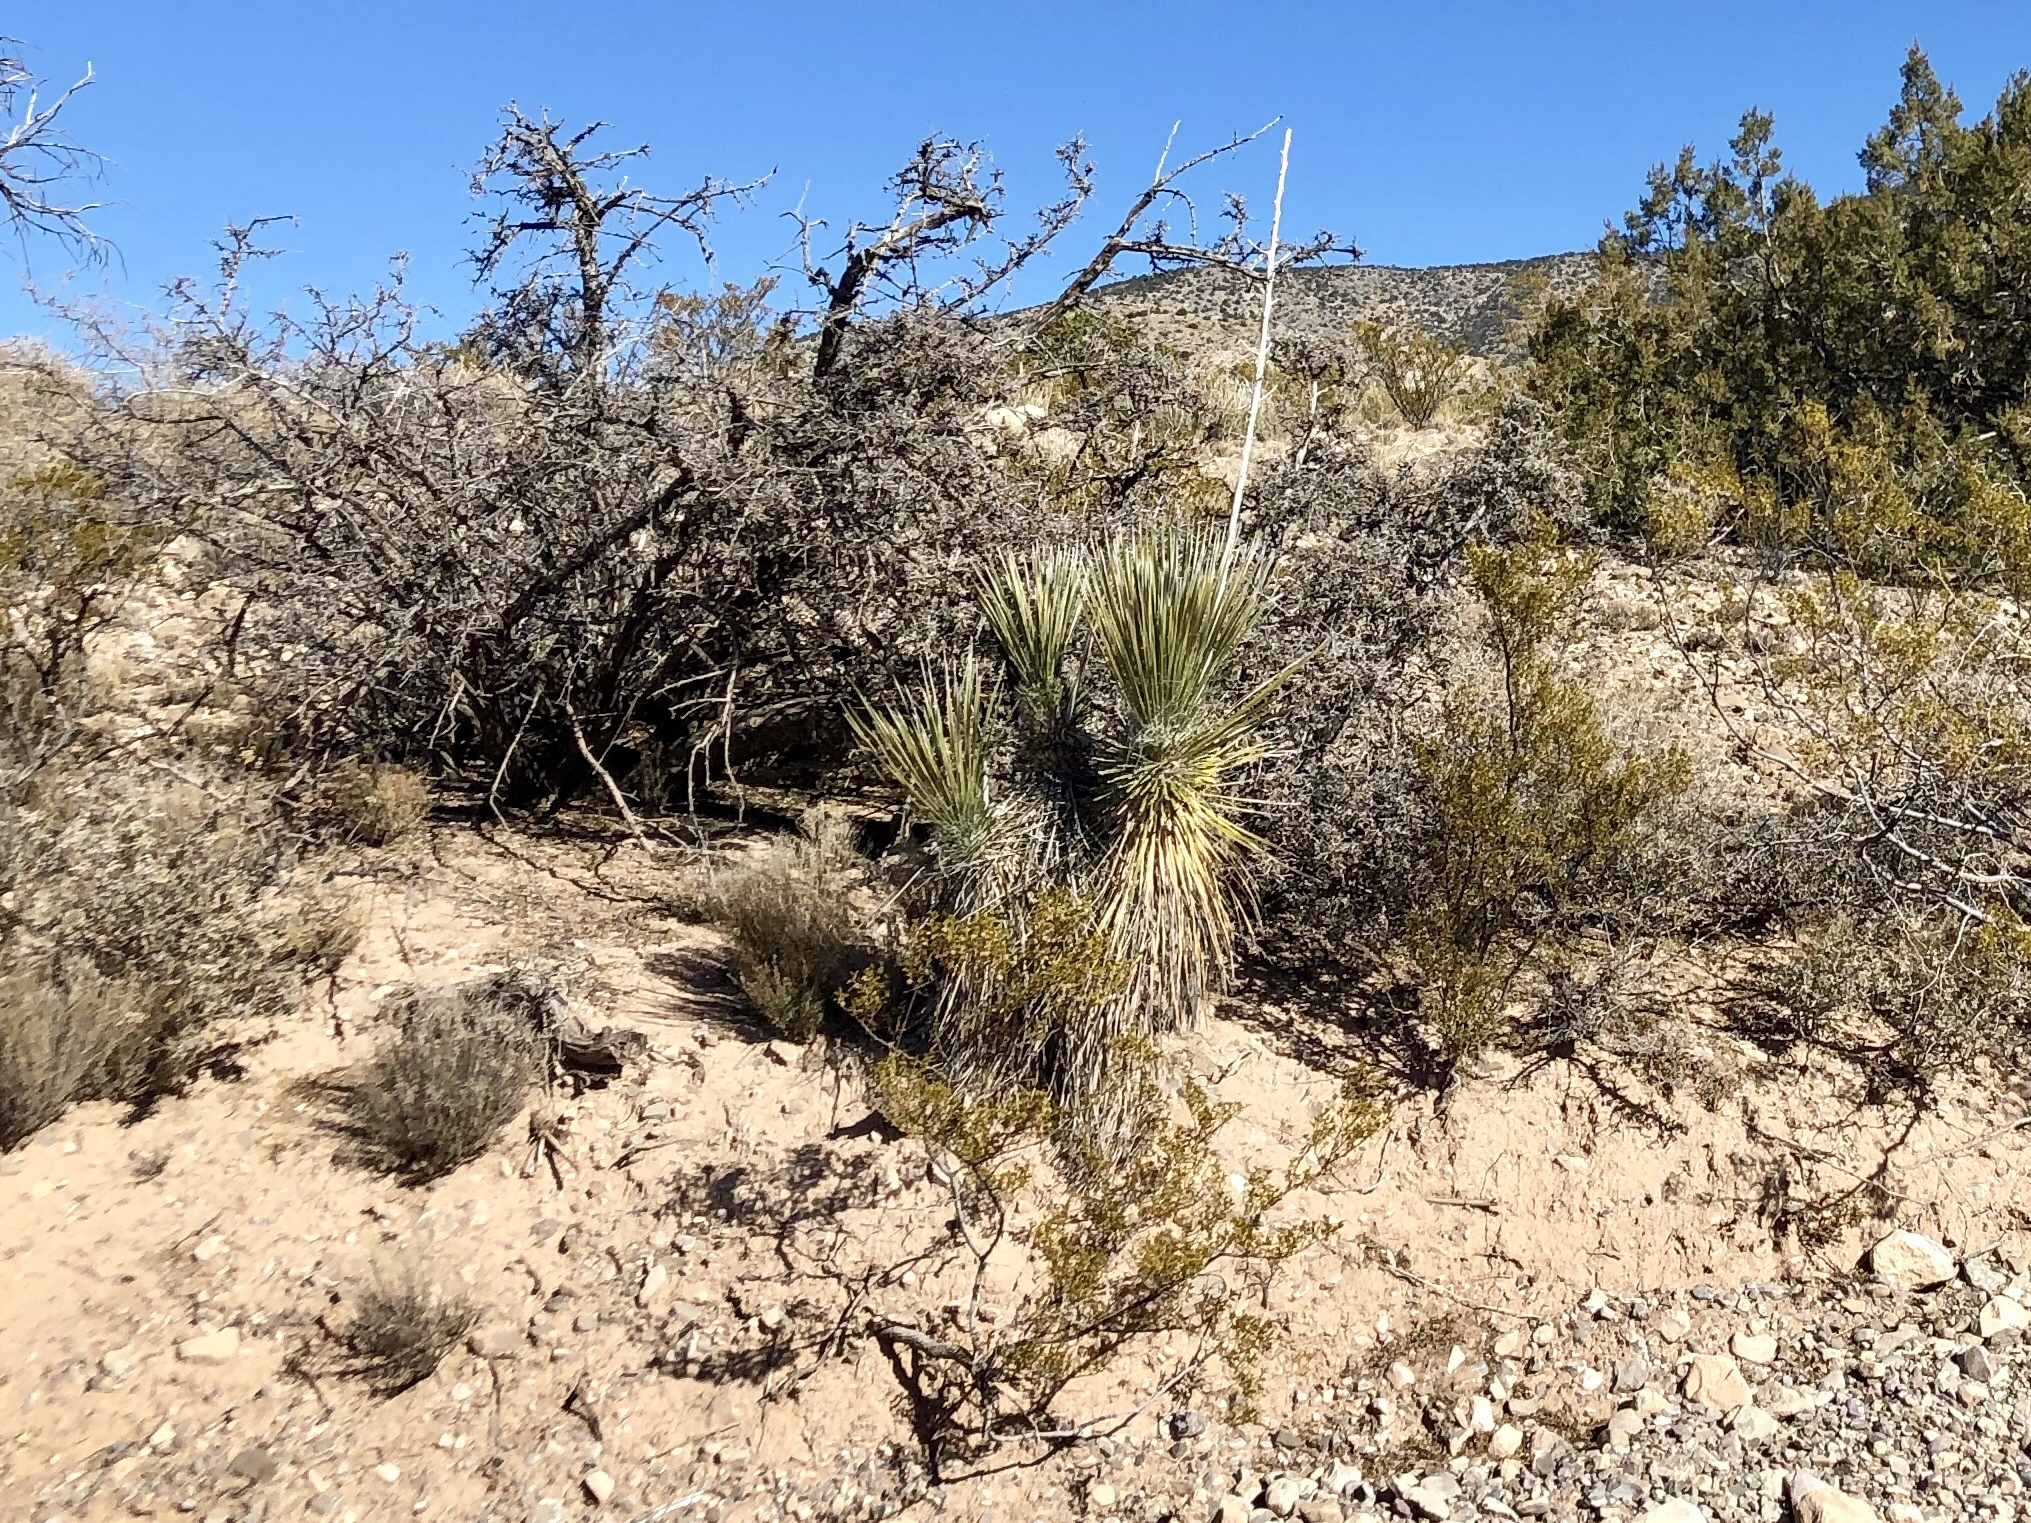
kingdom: Plantae
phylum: Tracheophyta
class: Liliopsida
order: Asparagales
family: Asparagaceae
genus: Yucca
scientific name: Yucca elata
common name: Palmella
